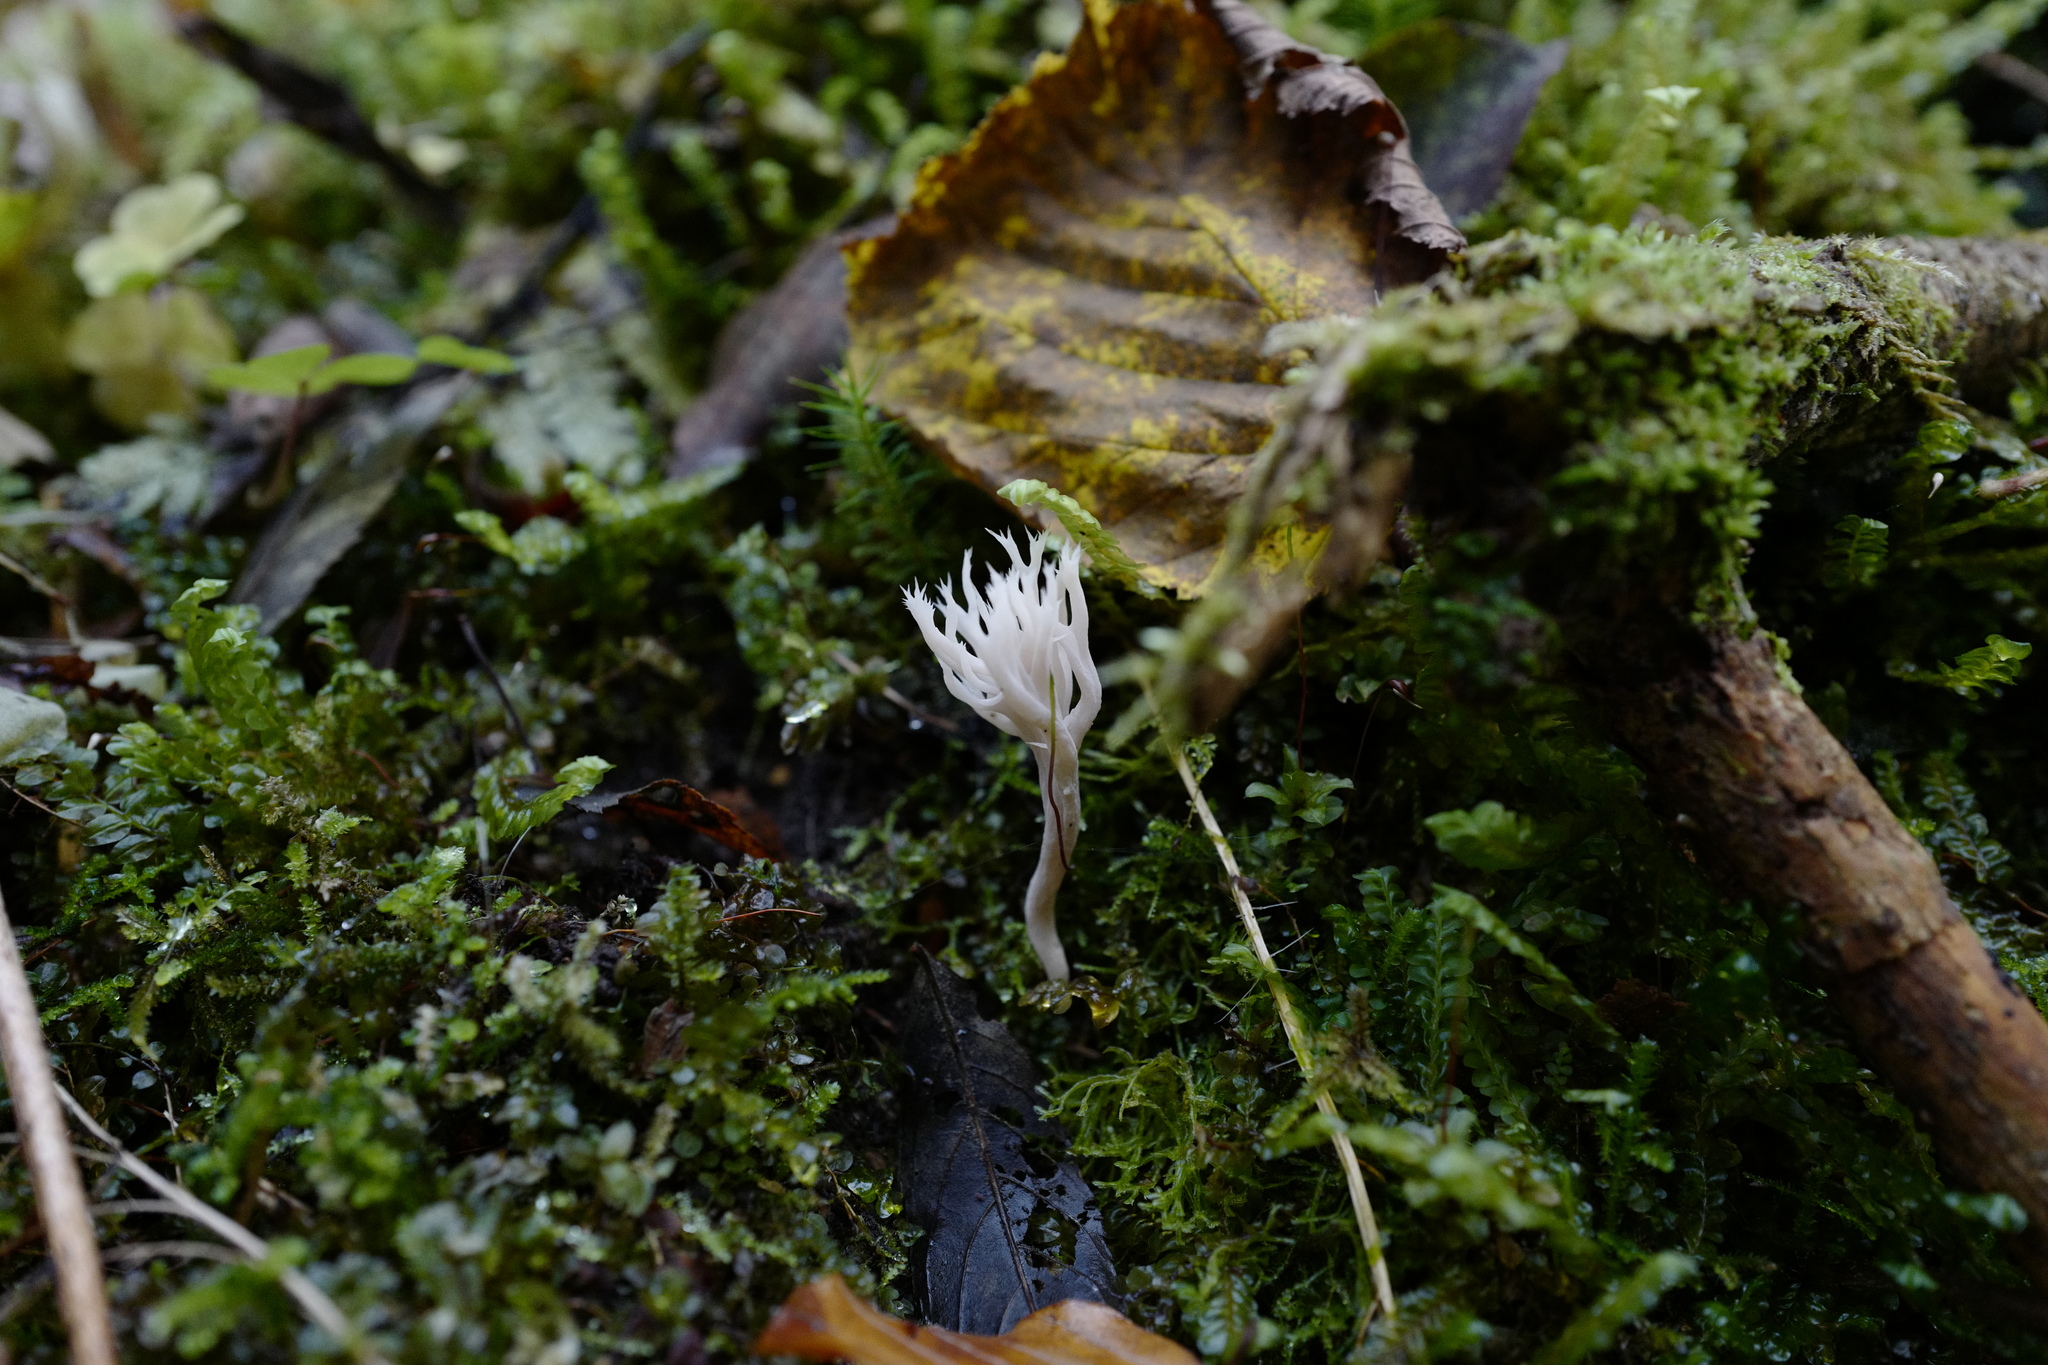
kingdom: Fungi
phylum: Basidiomycota
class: Agaricomycetes
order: Cantharellales
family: Hydnaceae
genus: Clavulina
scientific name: Clavulina coralloides
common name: Crested coral
